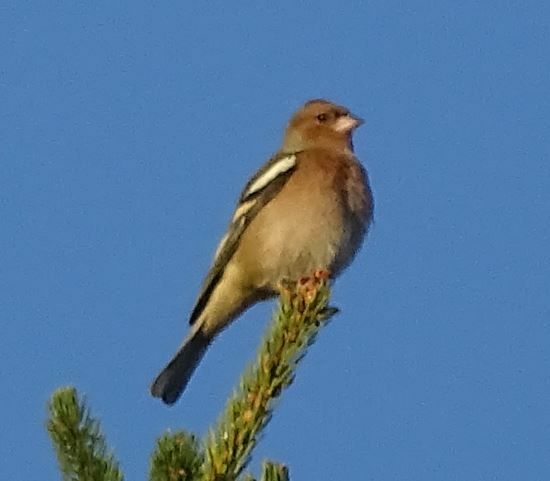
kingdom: Animalia
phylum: Chordata
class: Aves
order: Passeriformes
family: Fringillidae
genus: Fringilla
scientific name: Fringilla coelebs
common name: Common chaffinch
